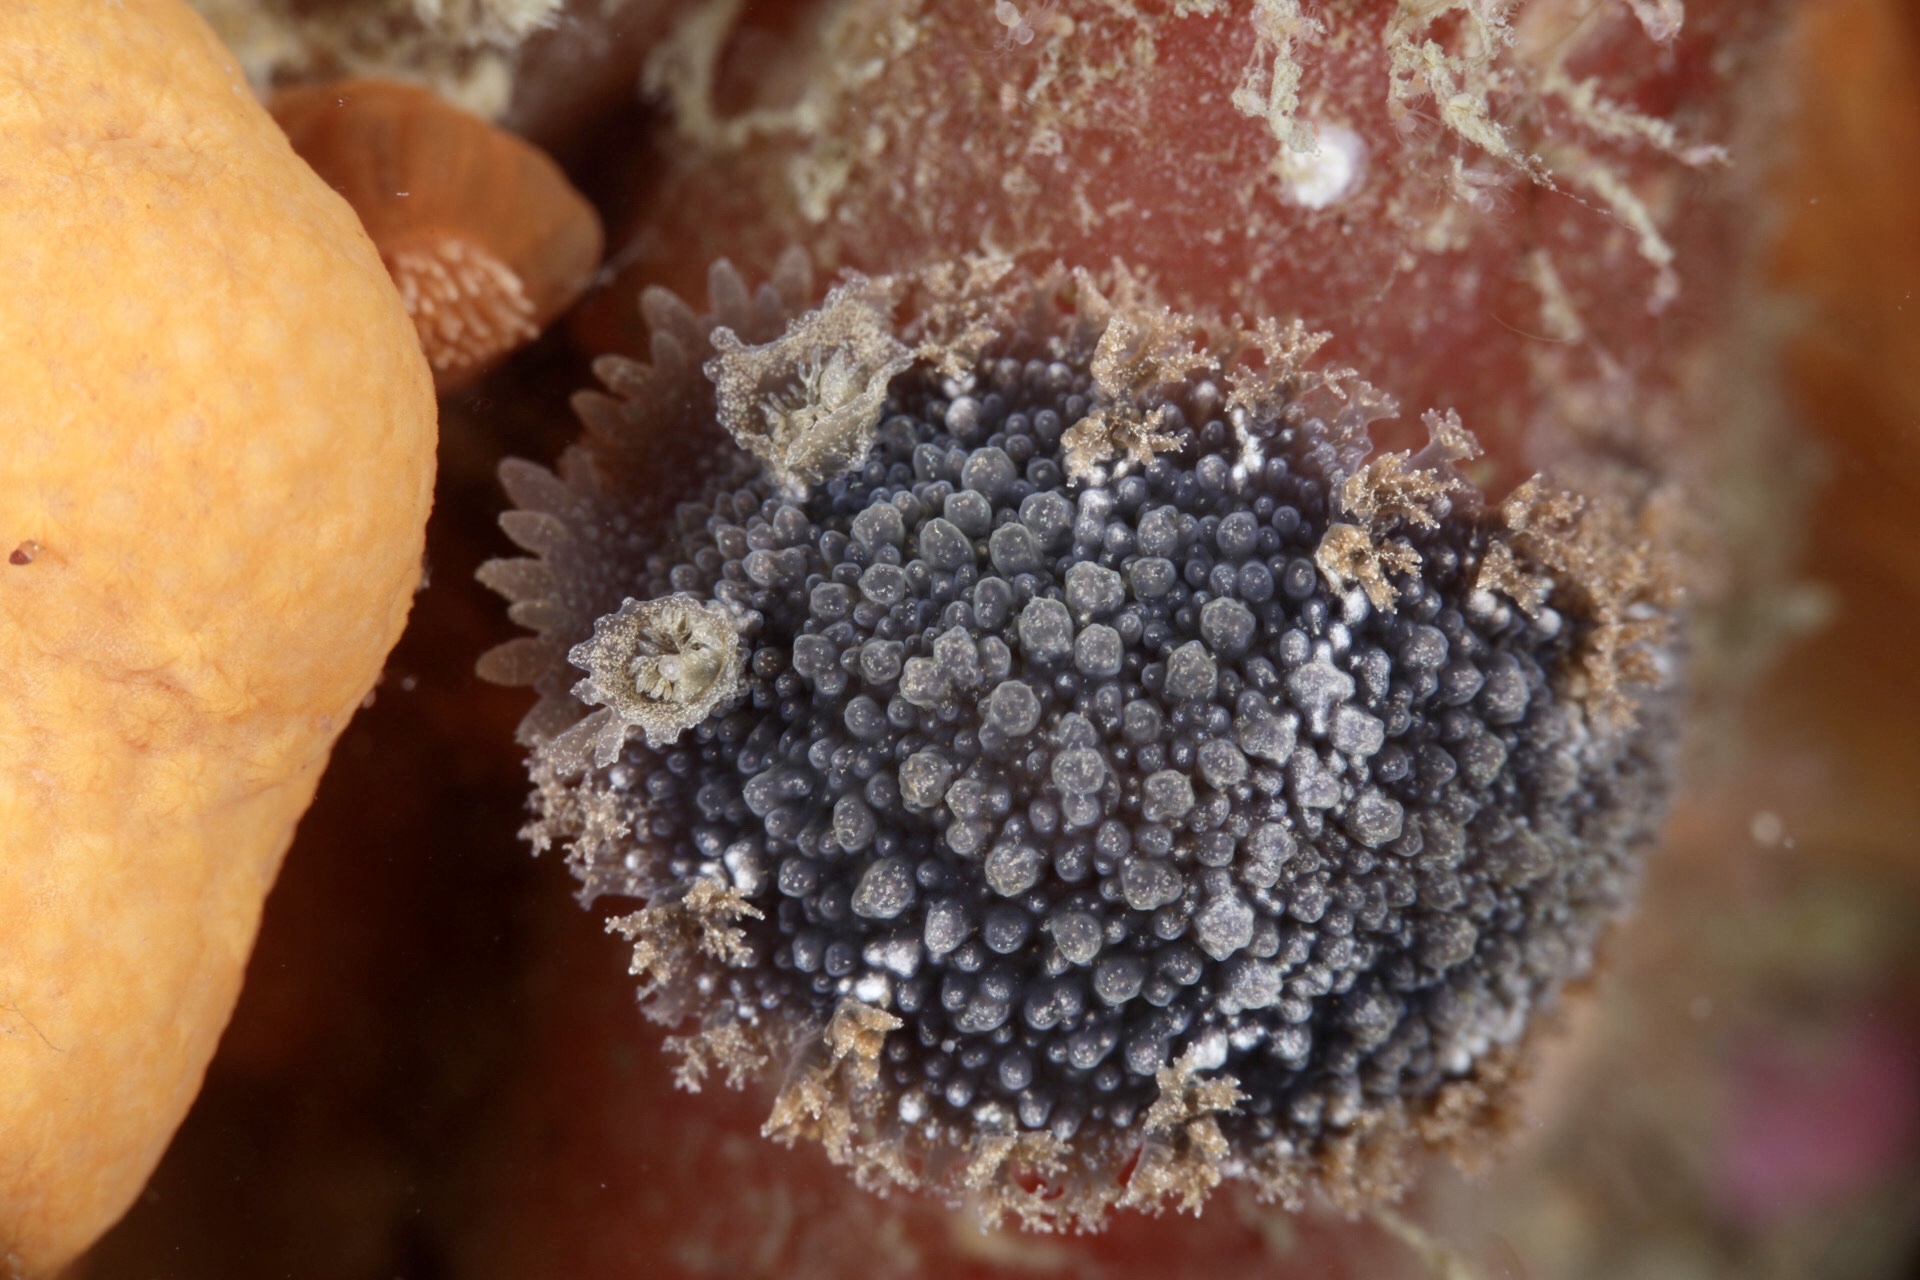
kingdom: Animalia
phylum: Mollusca
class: Gastropoda
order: Nudibranchia
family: Tritoniidae
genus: Tritonia
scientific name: Tritonia hombergii
